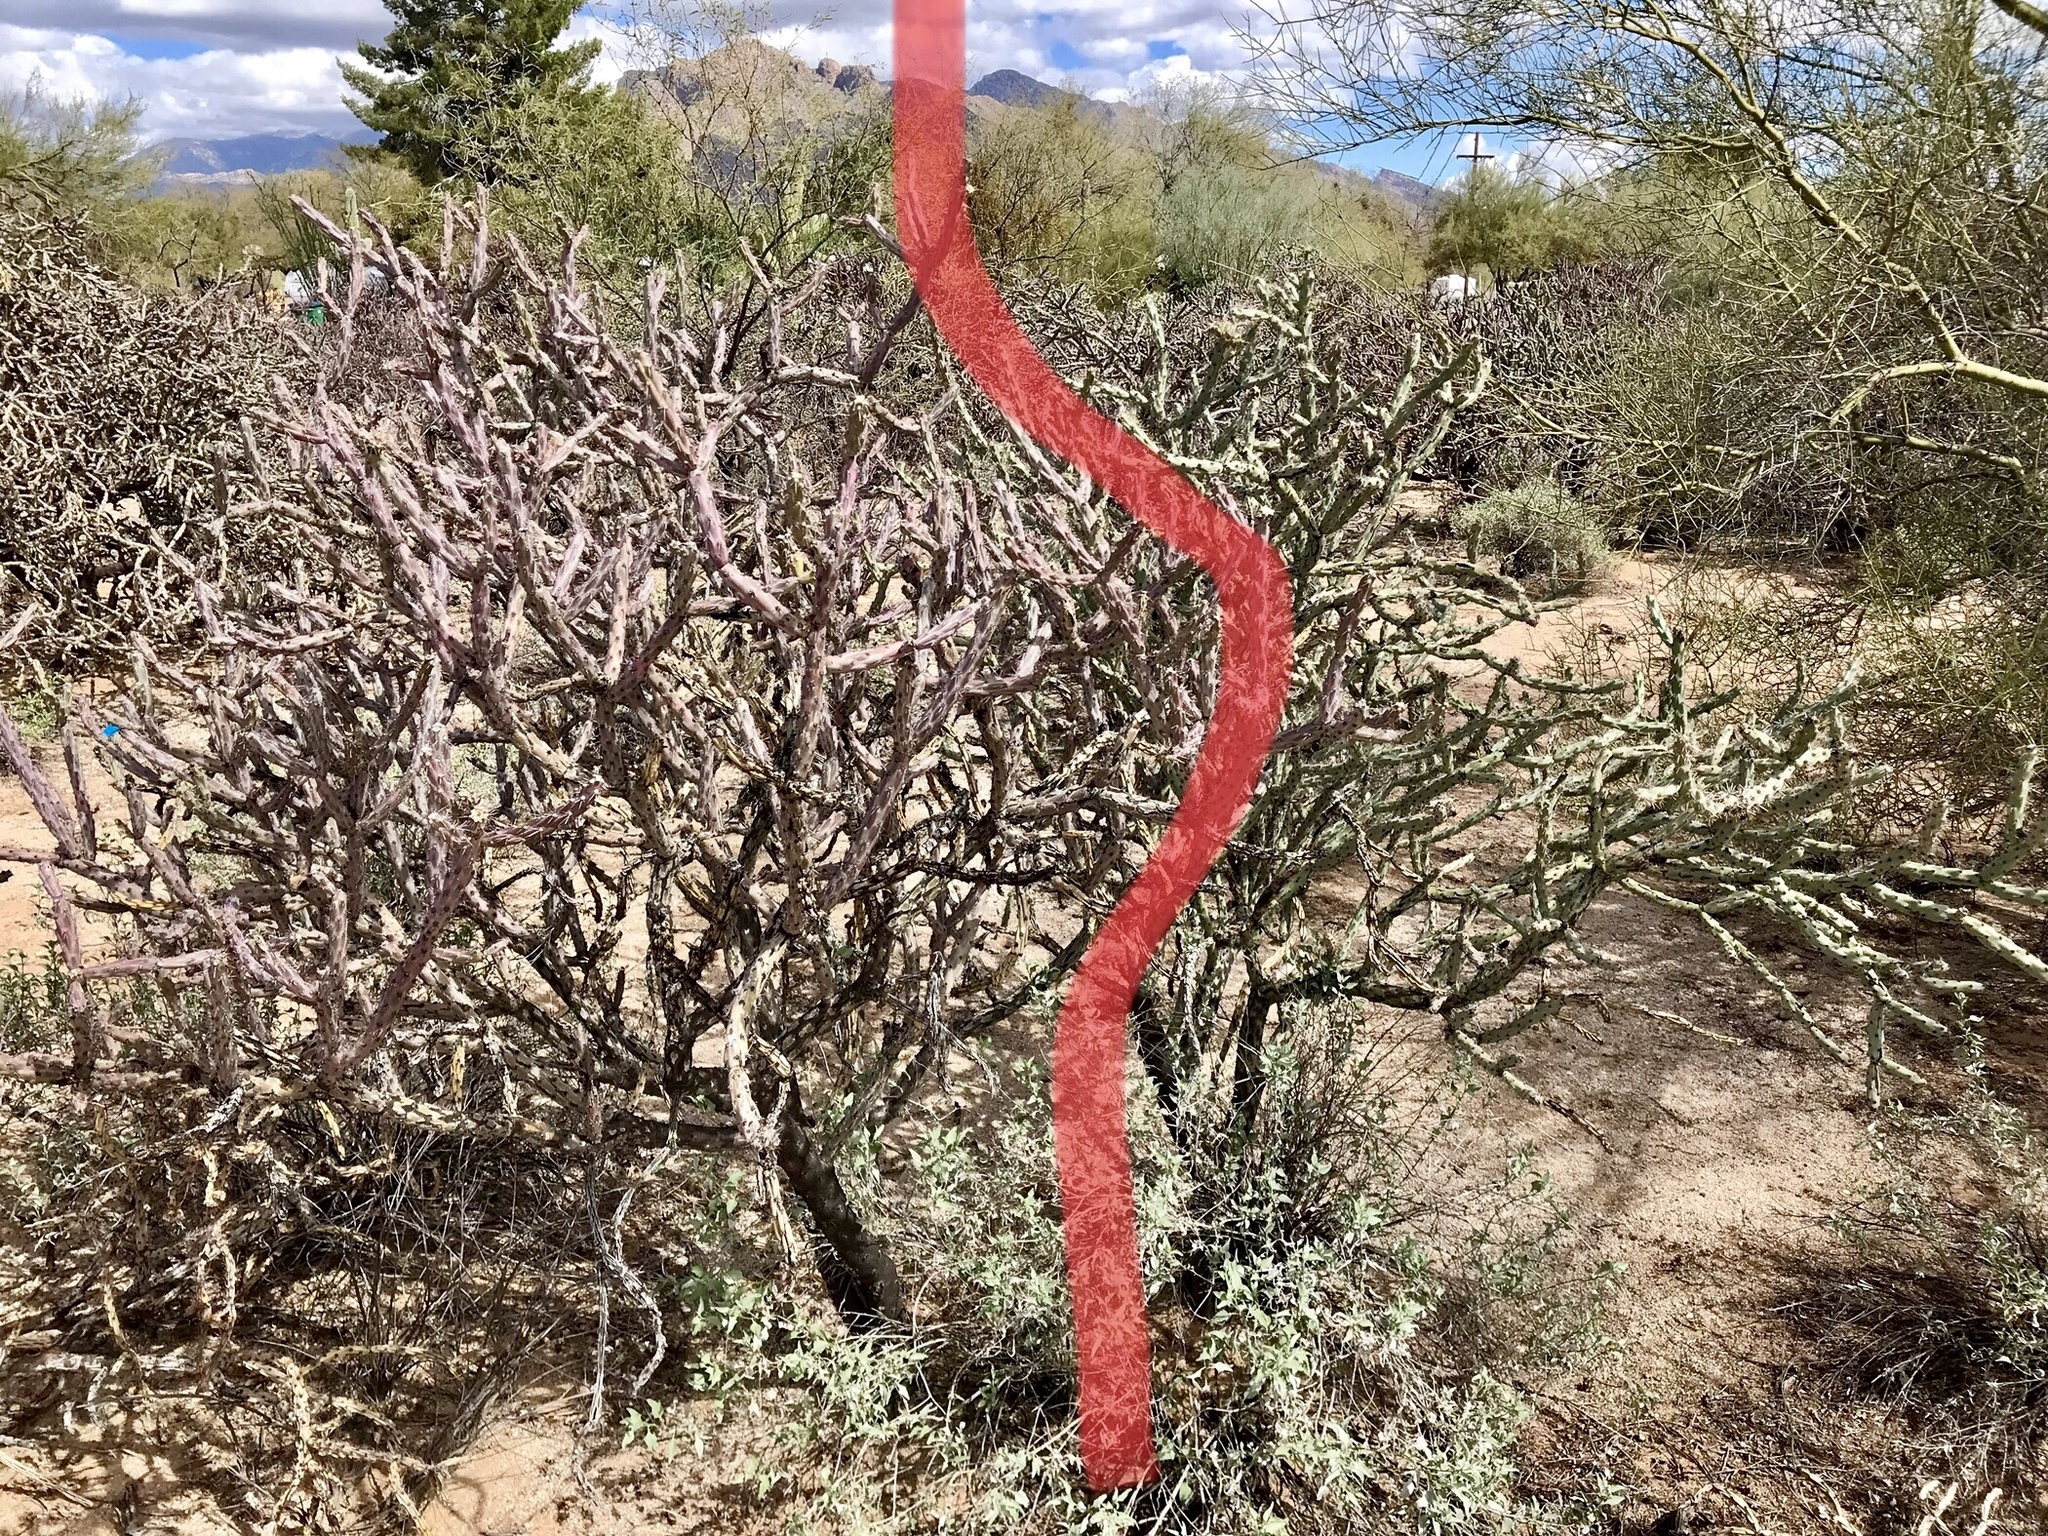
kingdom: Plantae
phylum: Tracheophyta
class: Magnoliopsida
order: Caryophyllales
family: Cactaceae
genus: Cylindropuntia
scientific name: Cylindropuntia thurberi
